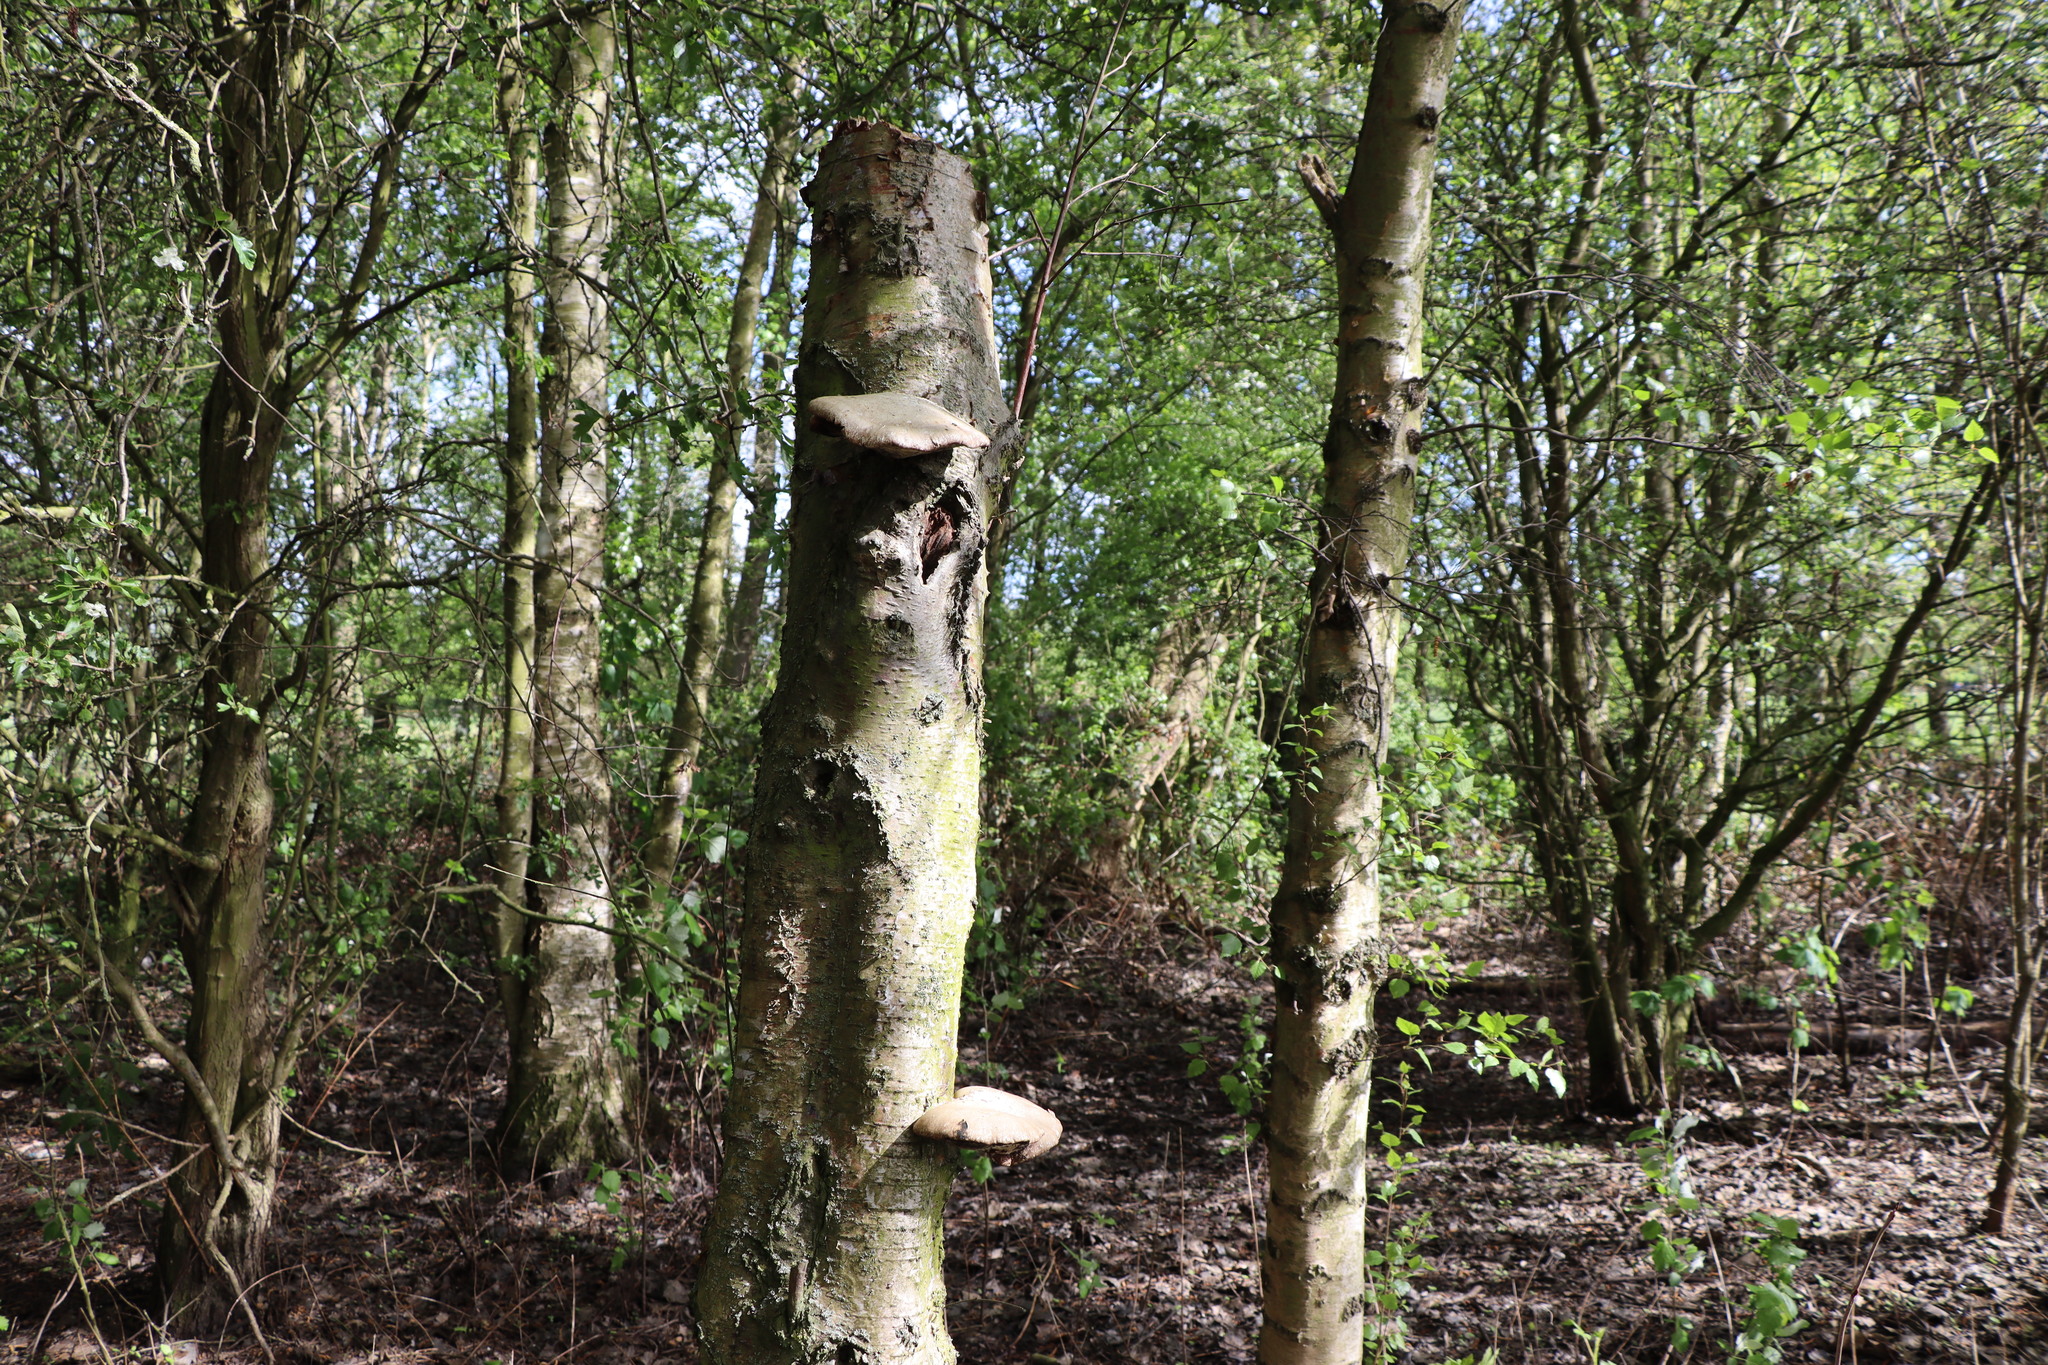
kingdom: Fungi
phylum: Basidiomycota
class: Agaricomycetes
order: Polyporales
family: Fomitopsidaceae
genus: Fomitopsis
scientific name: Fomitopsis betulina
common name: Birch polypore
